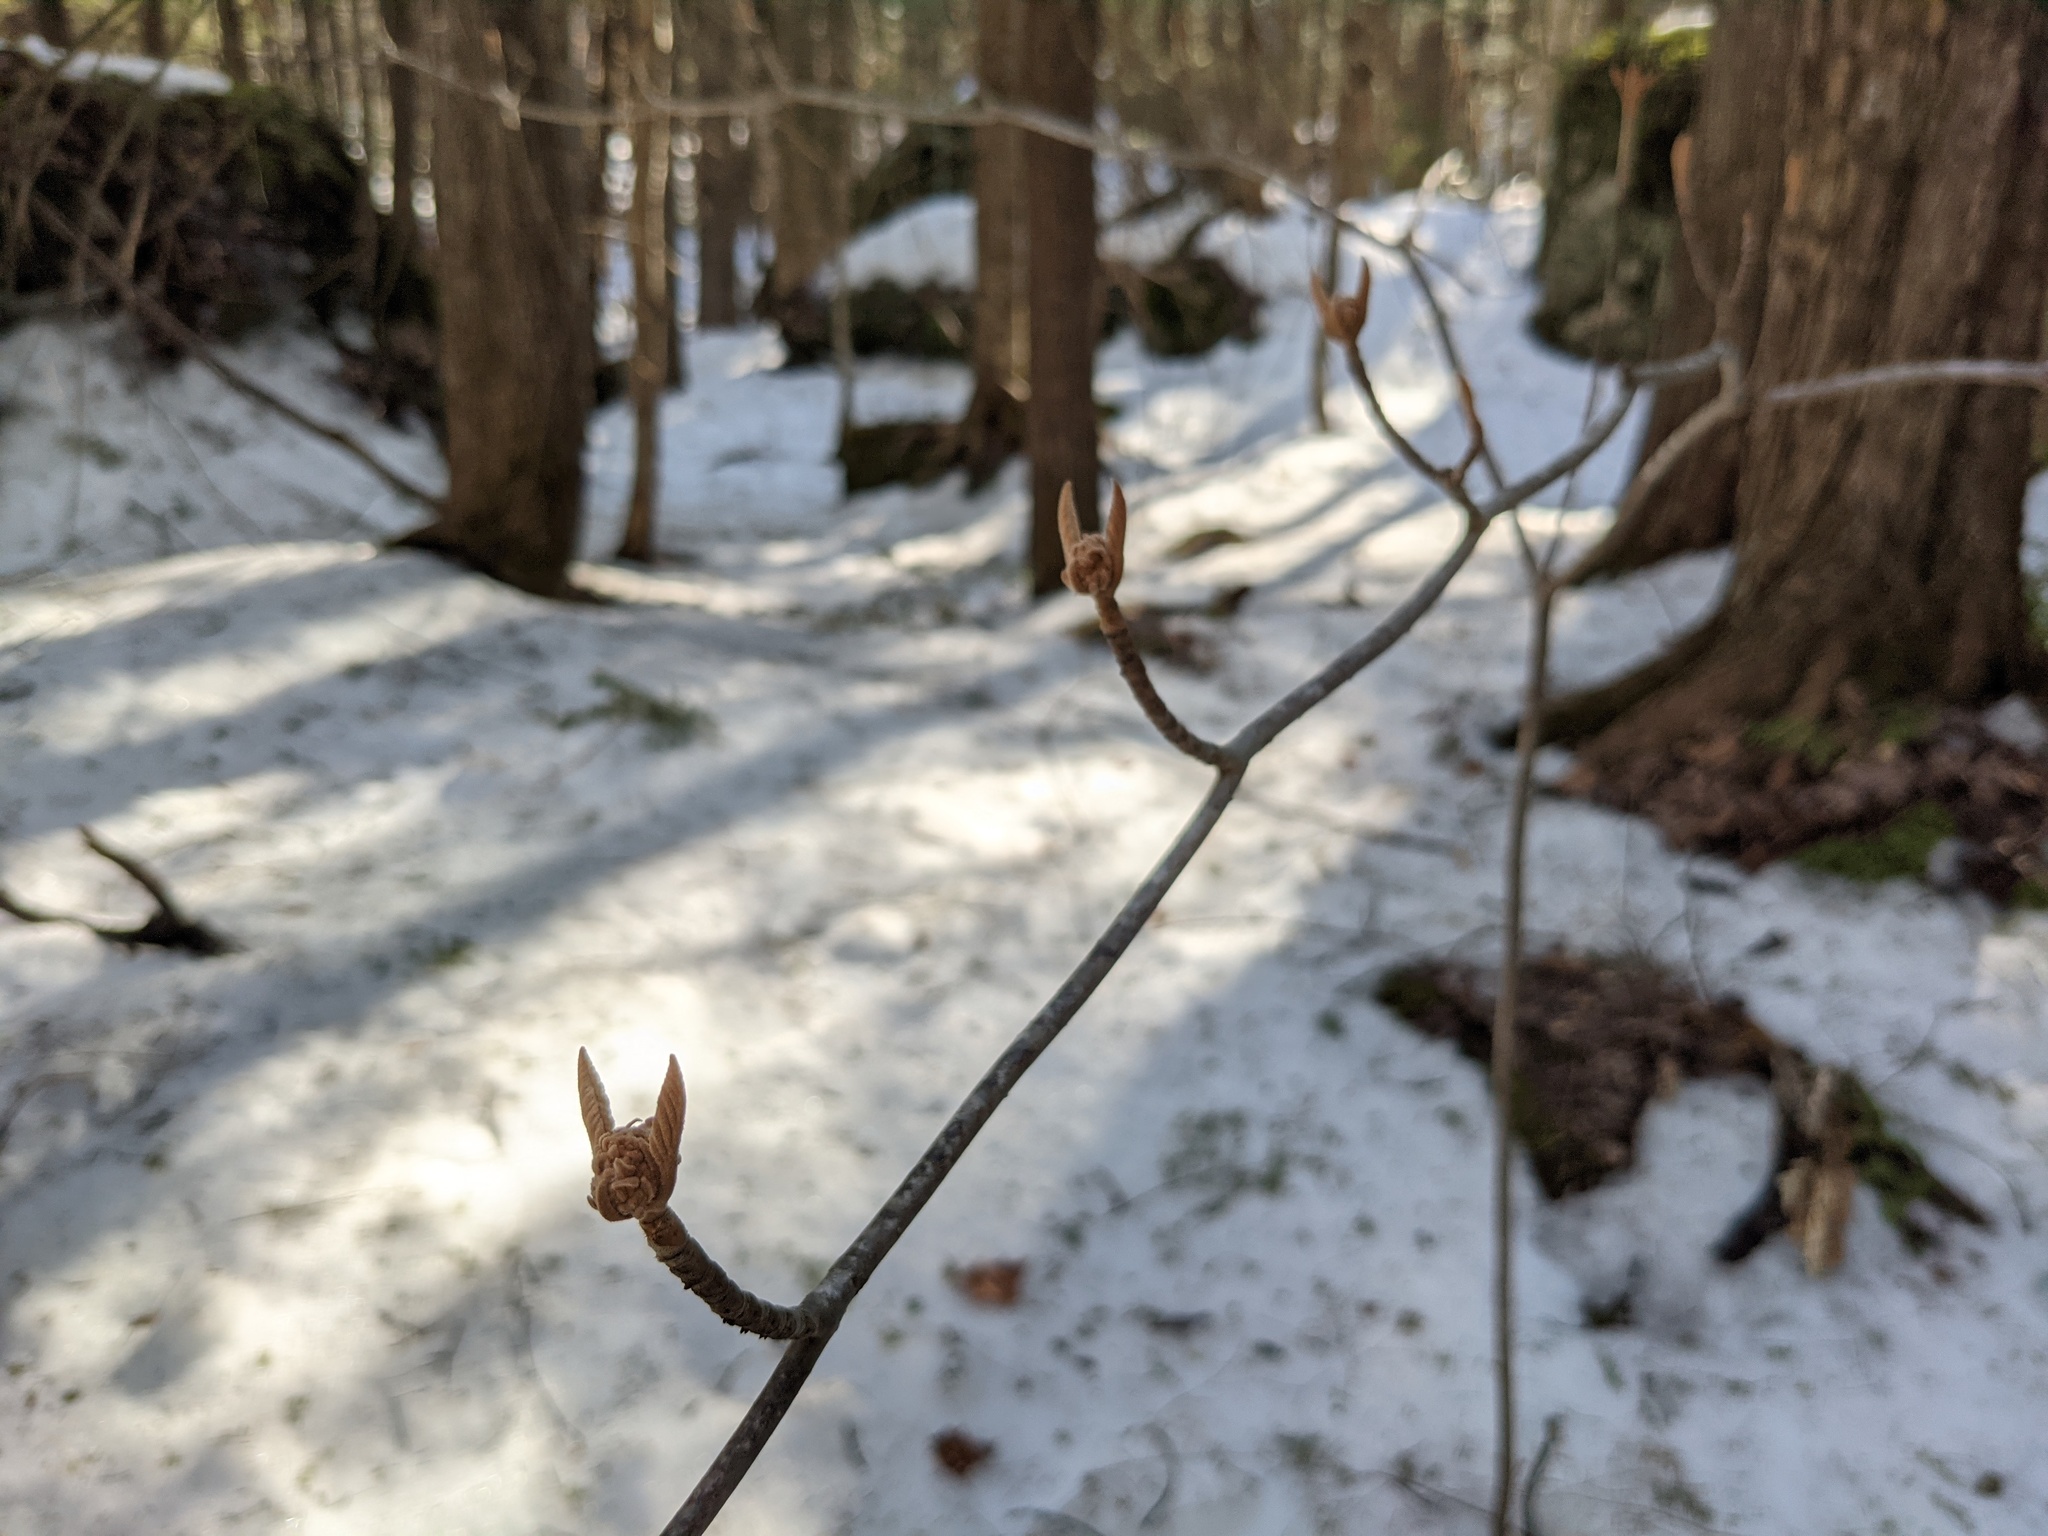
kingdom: Plantae
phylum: Tracheophyta
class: Magnoliopsida
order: Dipsacales
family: Viburnaceae
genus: Viburnum
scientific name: Viburnum lantanoides
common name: Hobblebush
